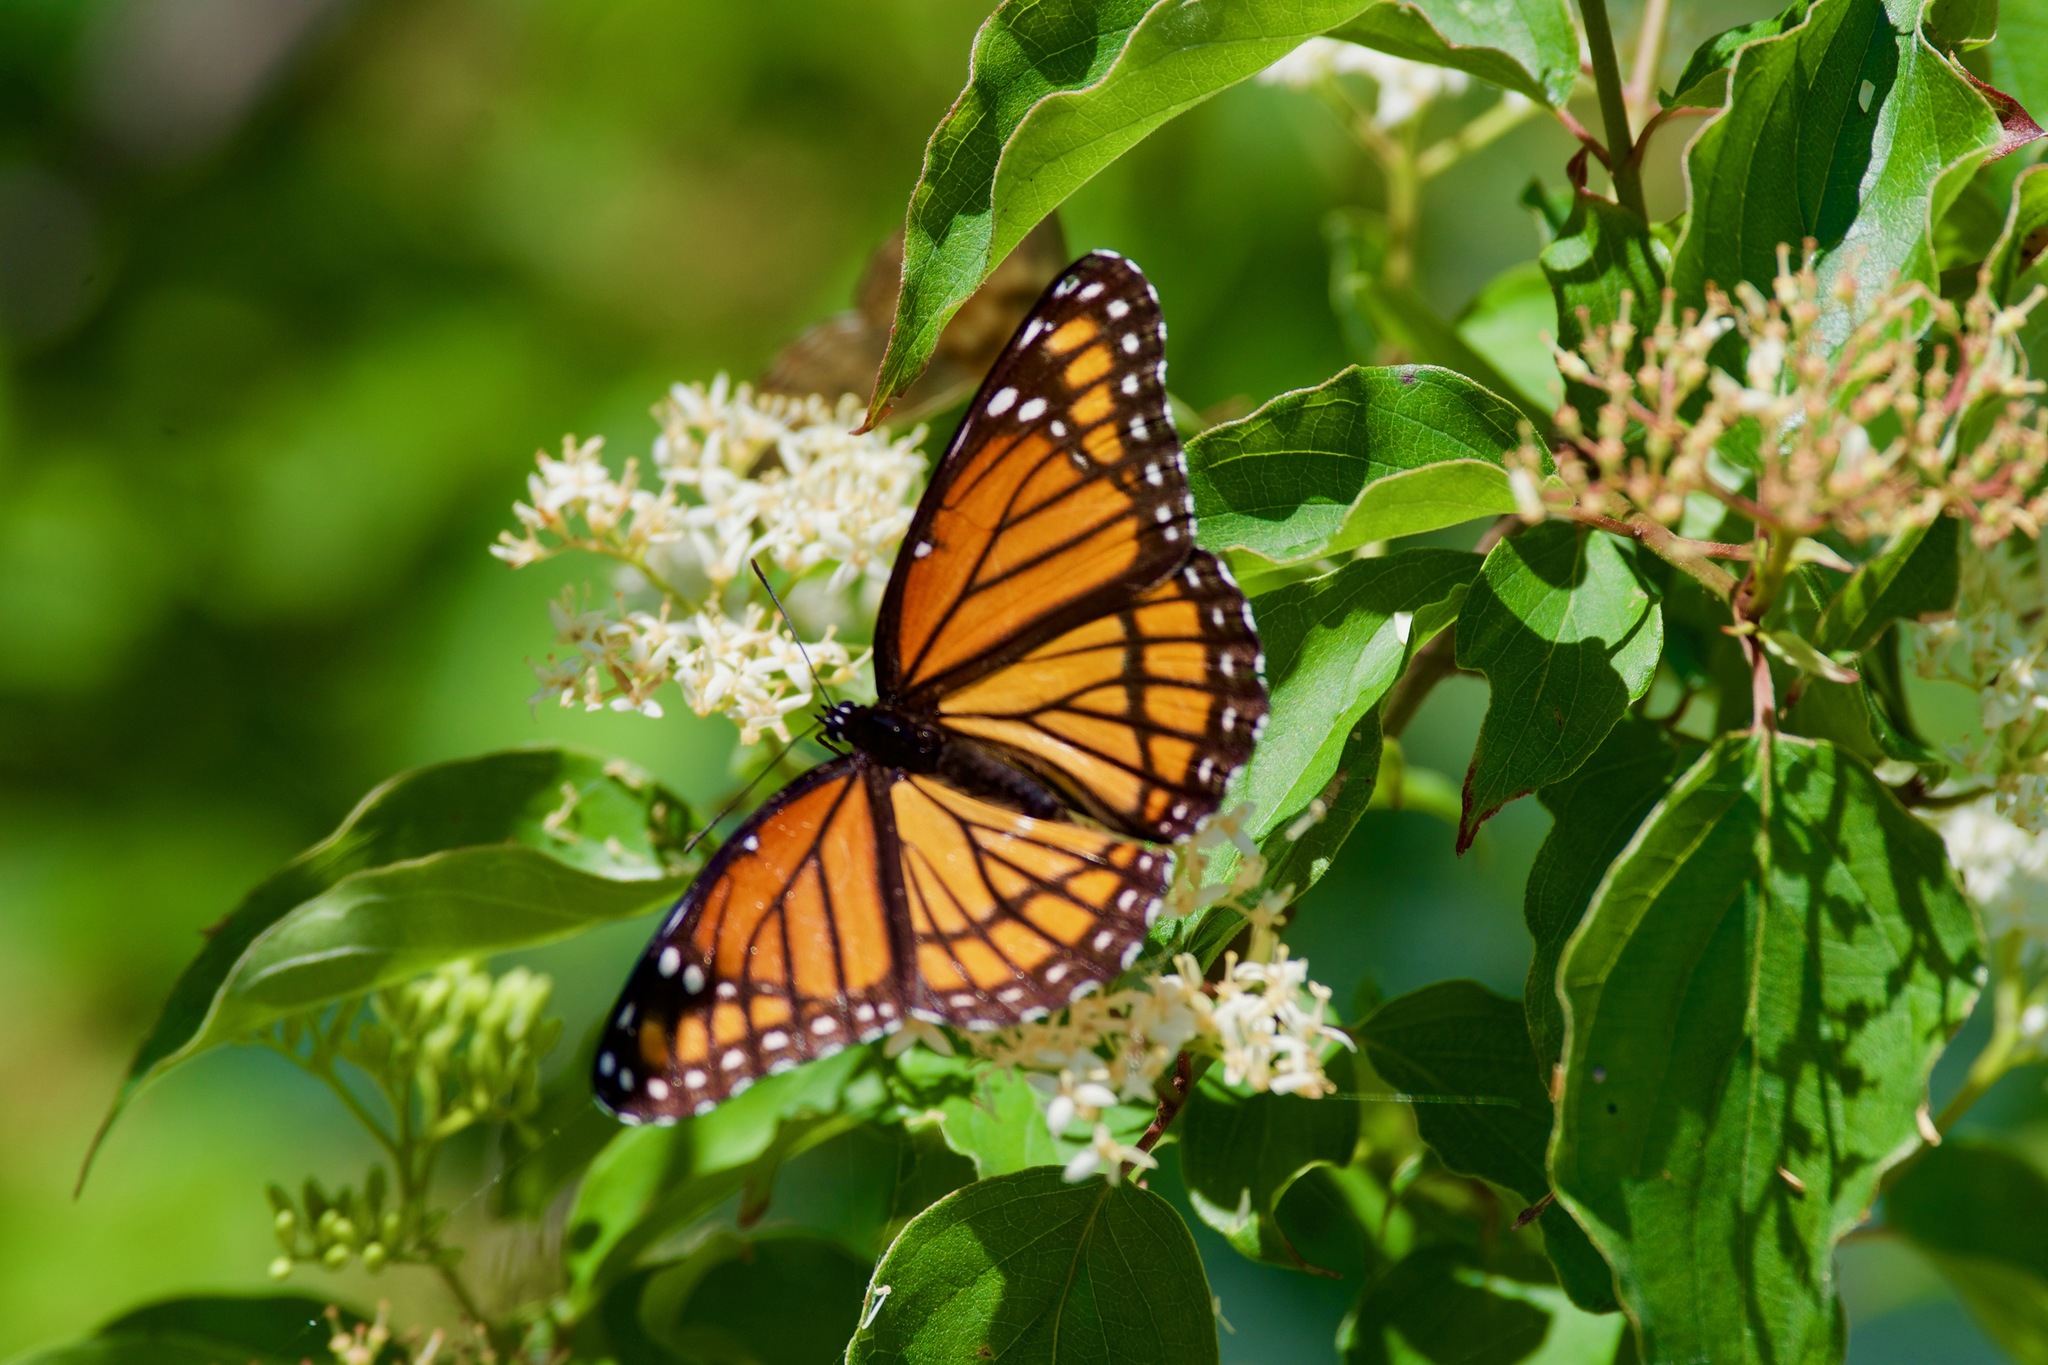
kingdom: Animalia
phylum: Arthropoda
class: Insecta
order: Lepidoptera
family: Nymphalidae
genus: Limenitis
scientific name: Limenitis archippus
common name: Viceroy
